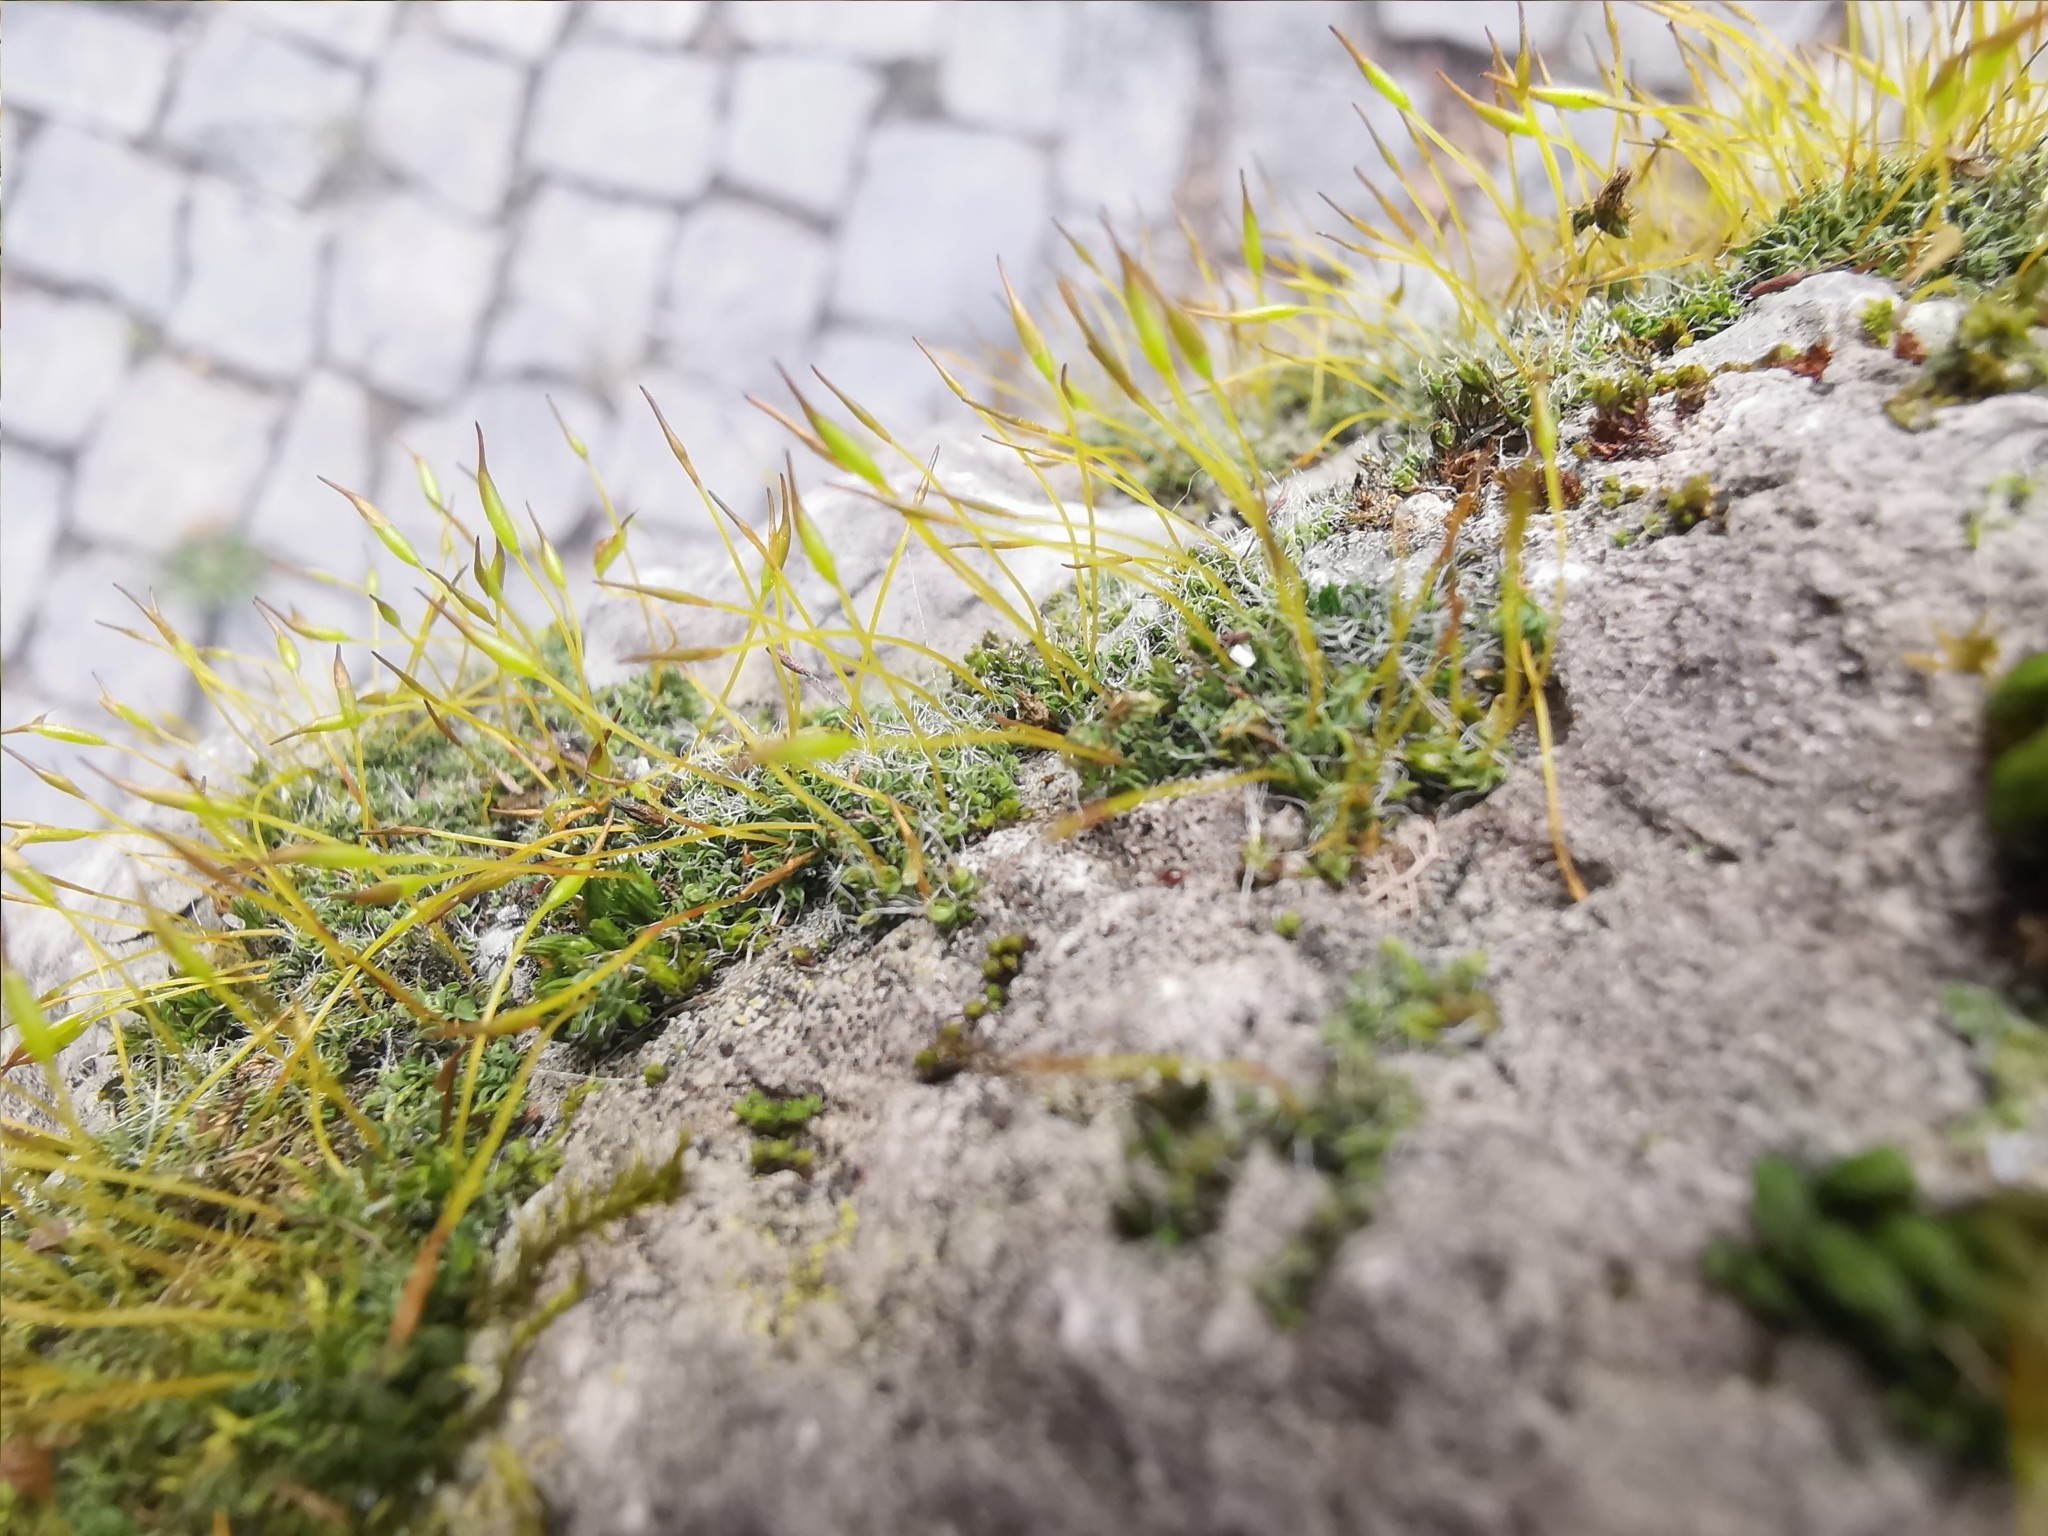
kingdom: Plantae
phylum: Bryophyta
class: Bryopsida
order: Pottiales
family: Pottiaceae
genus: Tortula
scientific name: Tortula muralis
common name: Wall screw-moss
